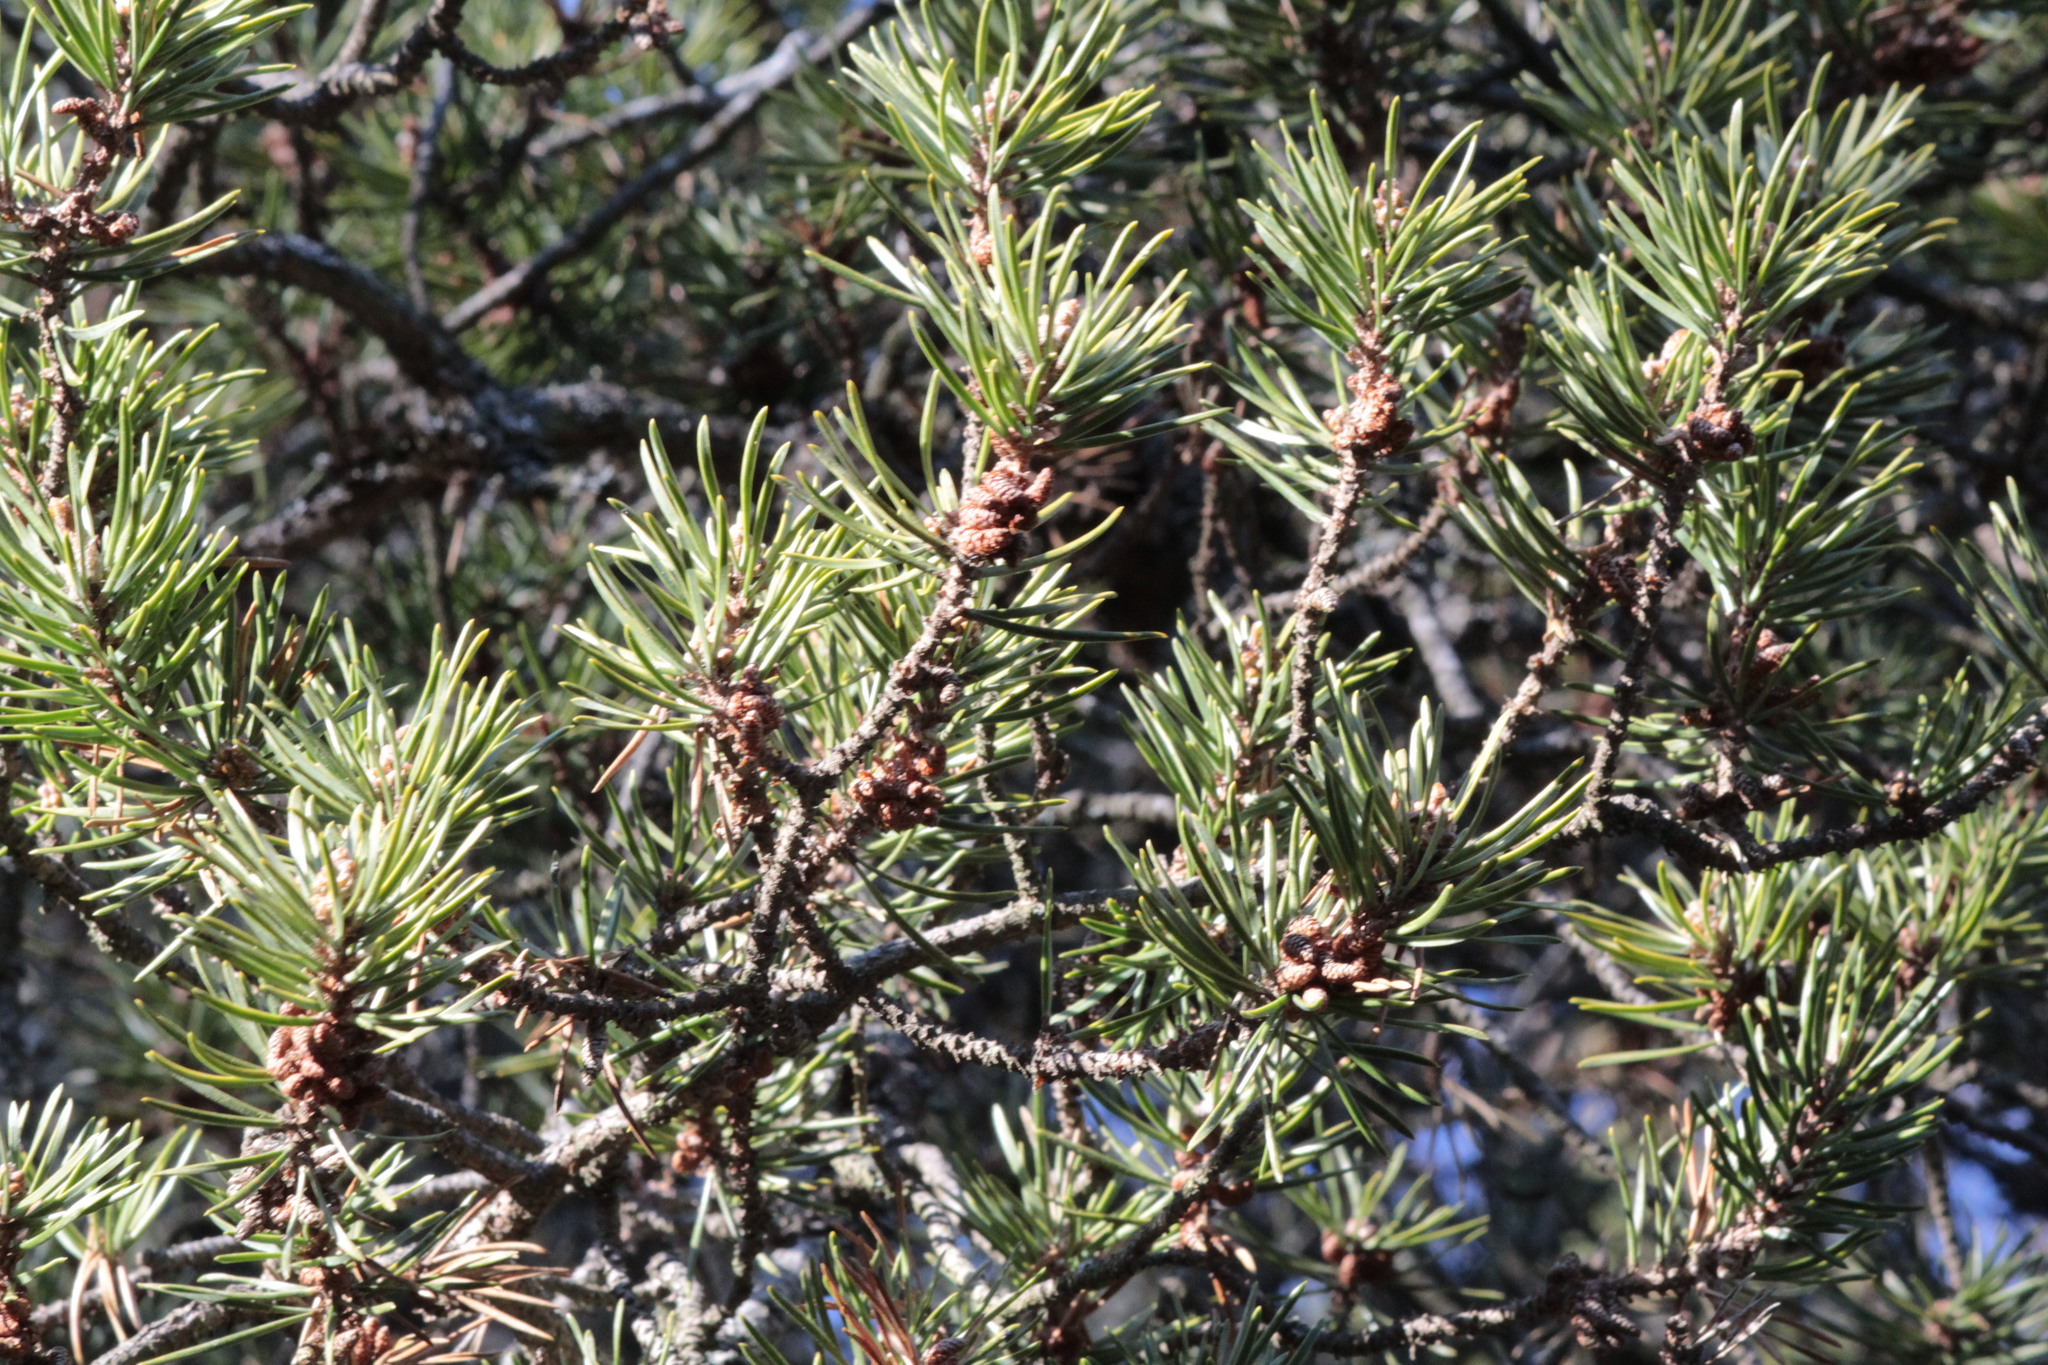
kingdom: Plantae
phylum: Tracheophyta
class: Pinopsida
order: Pinales
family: Pinaceae
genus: Pinus
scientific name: Pinus banksiana
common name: Jack pine
